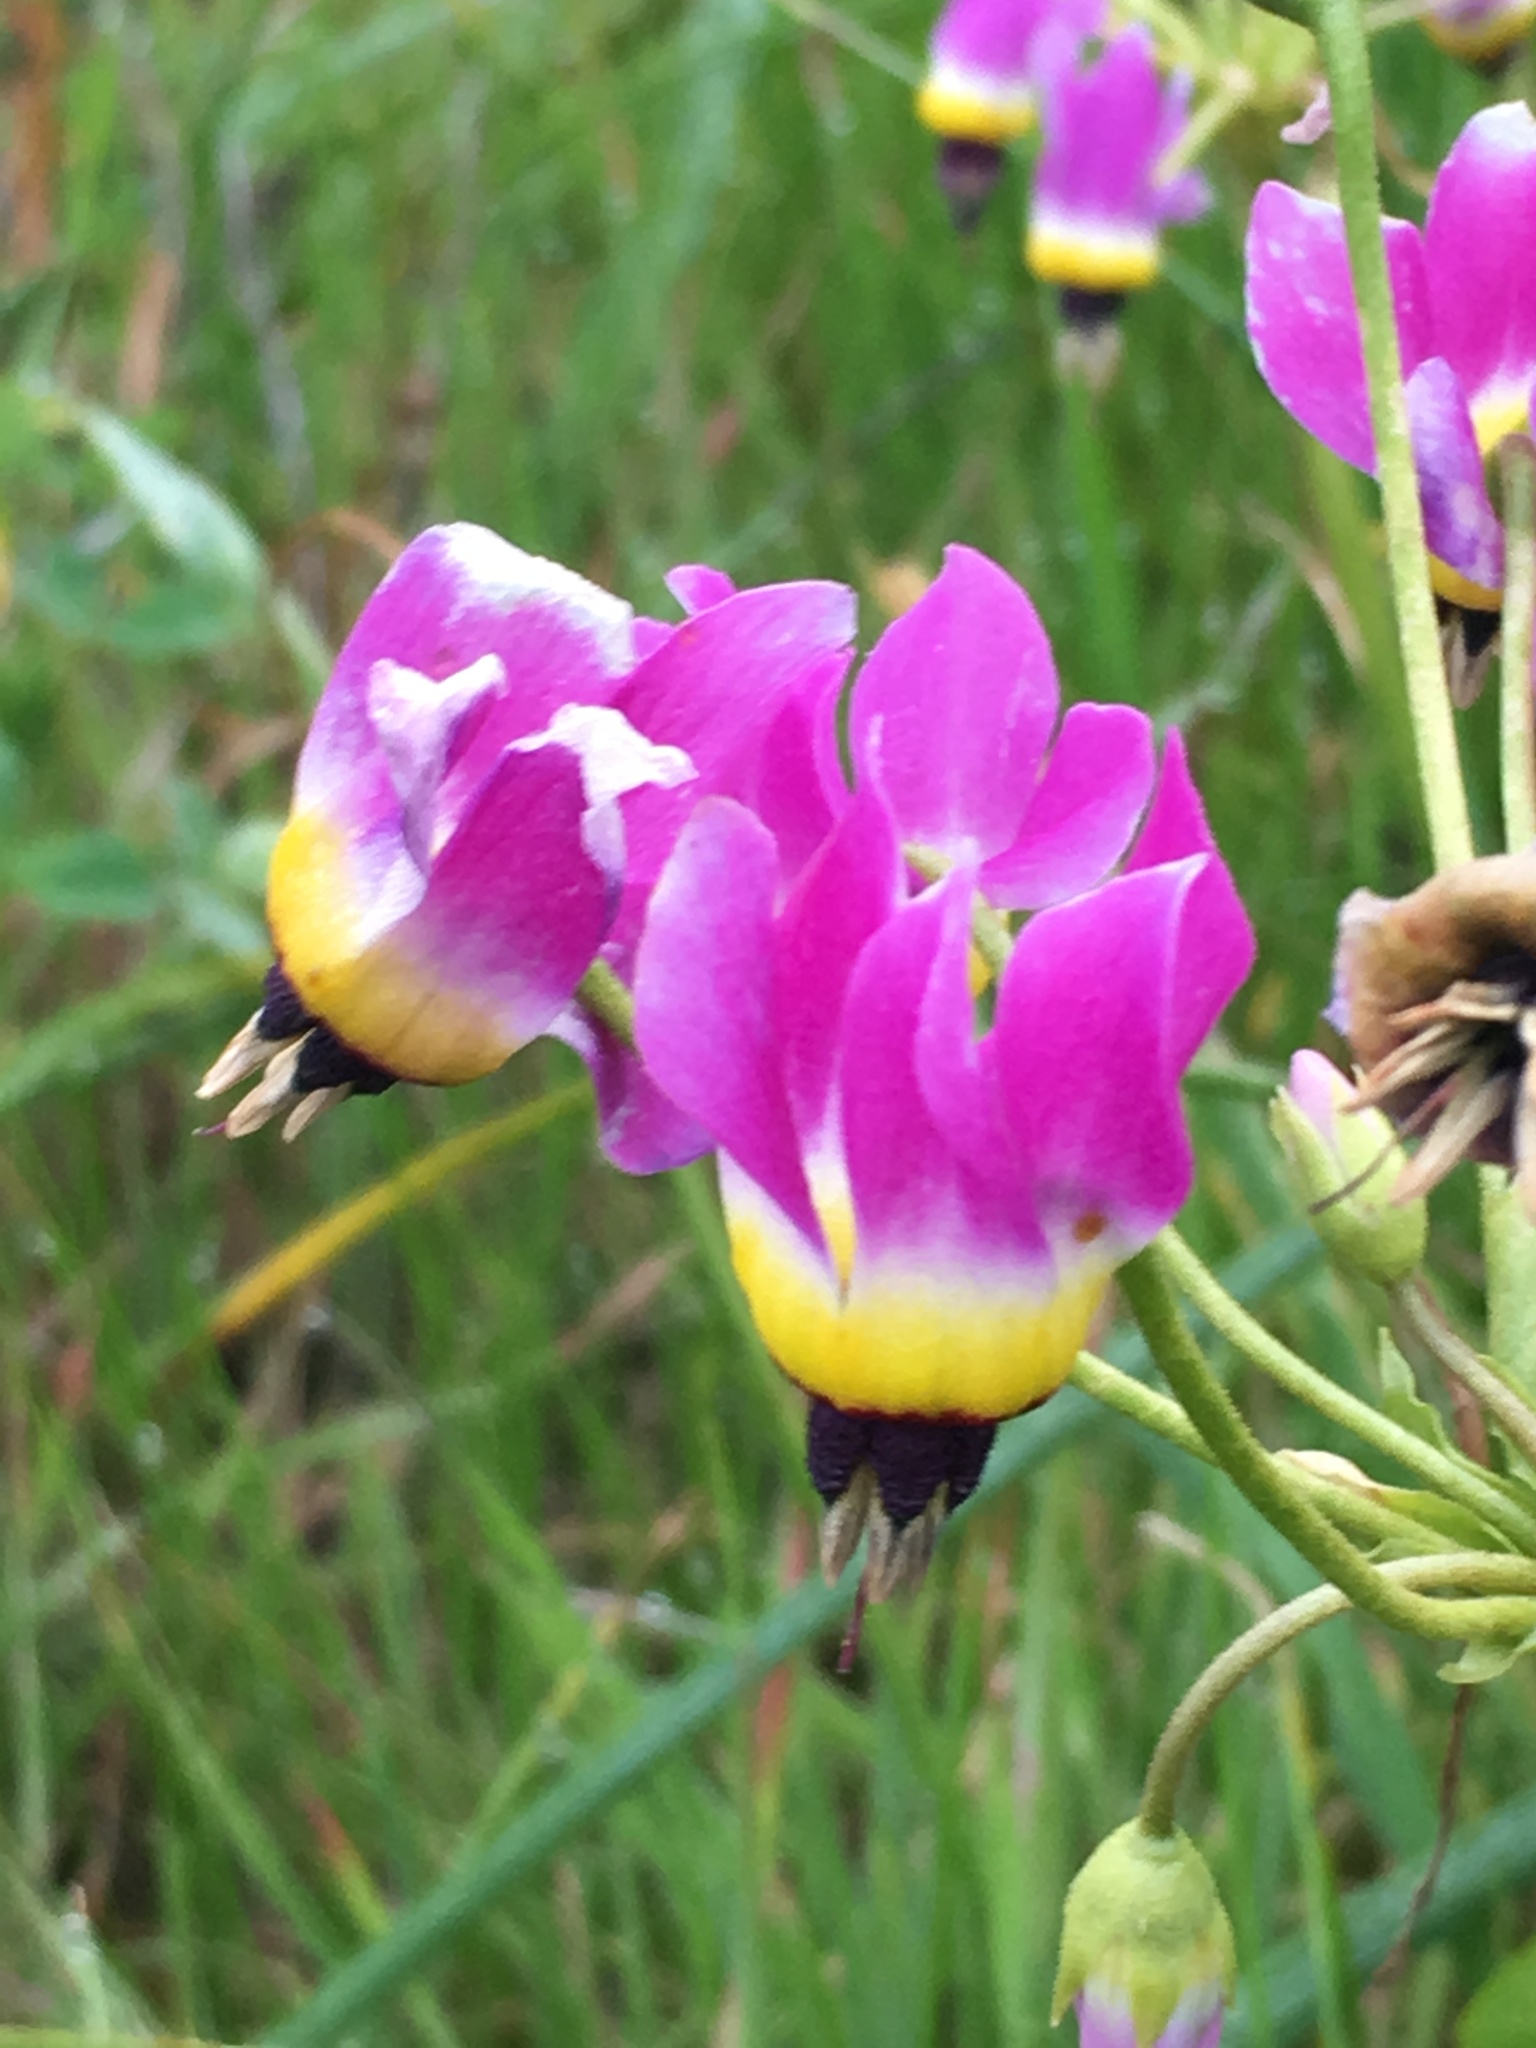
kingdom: Plantae
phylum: Tracheophyta
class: Magnoliopsida
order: Ericales
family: Primulaceae
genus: Dodecatheon
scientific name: Dodecatheon clevelandii
